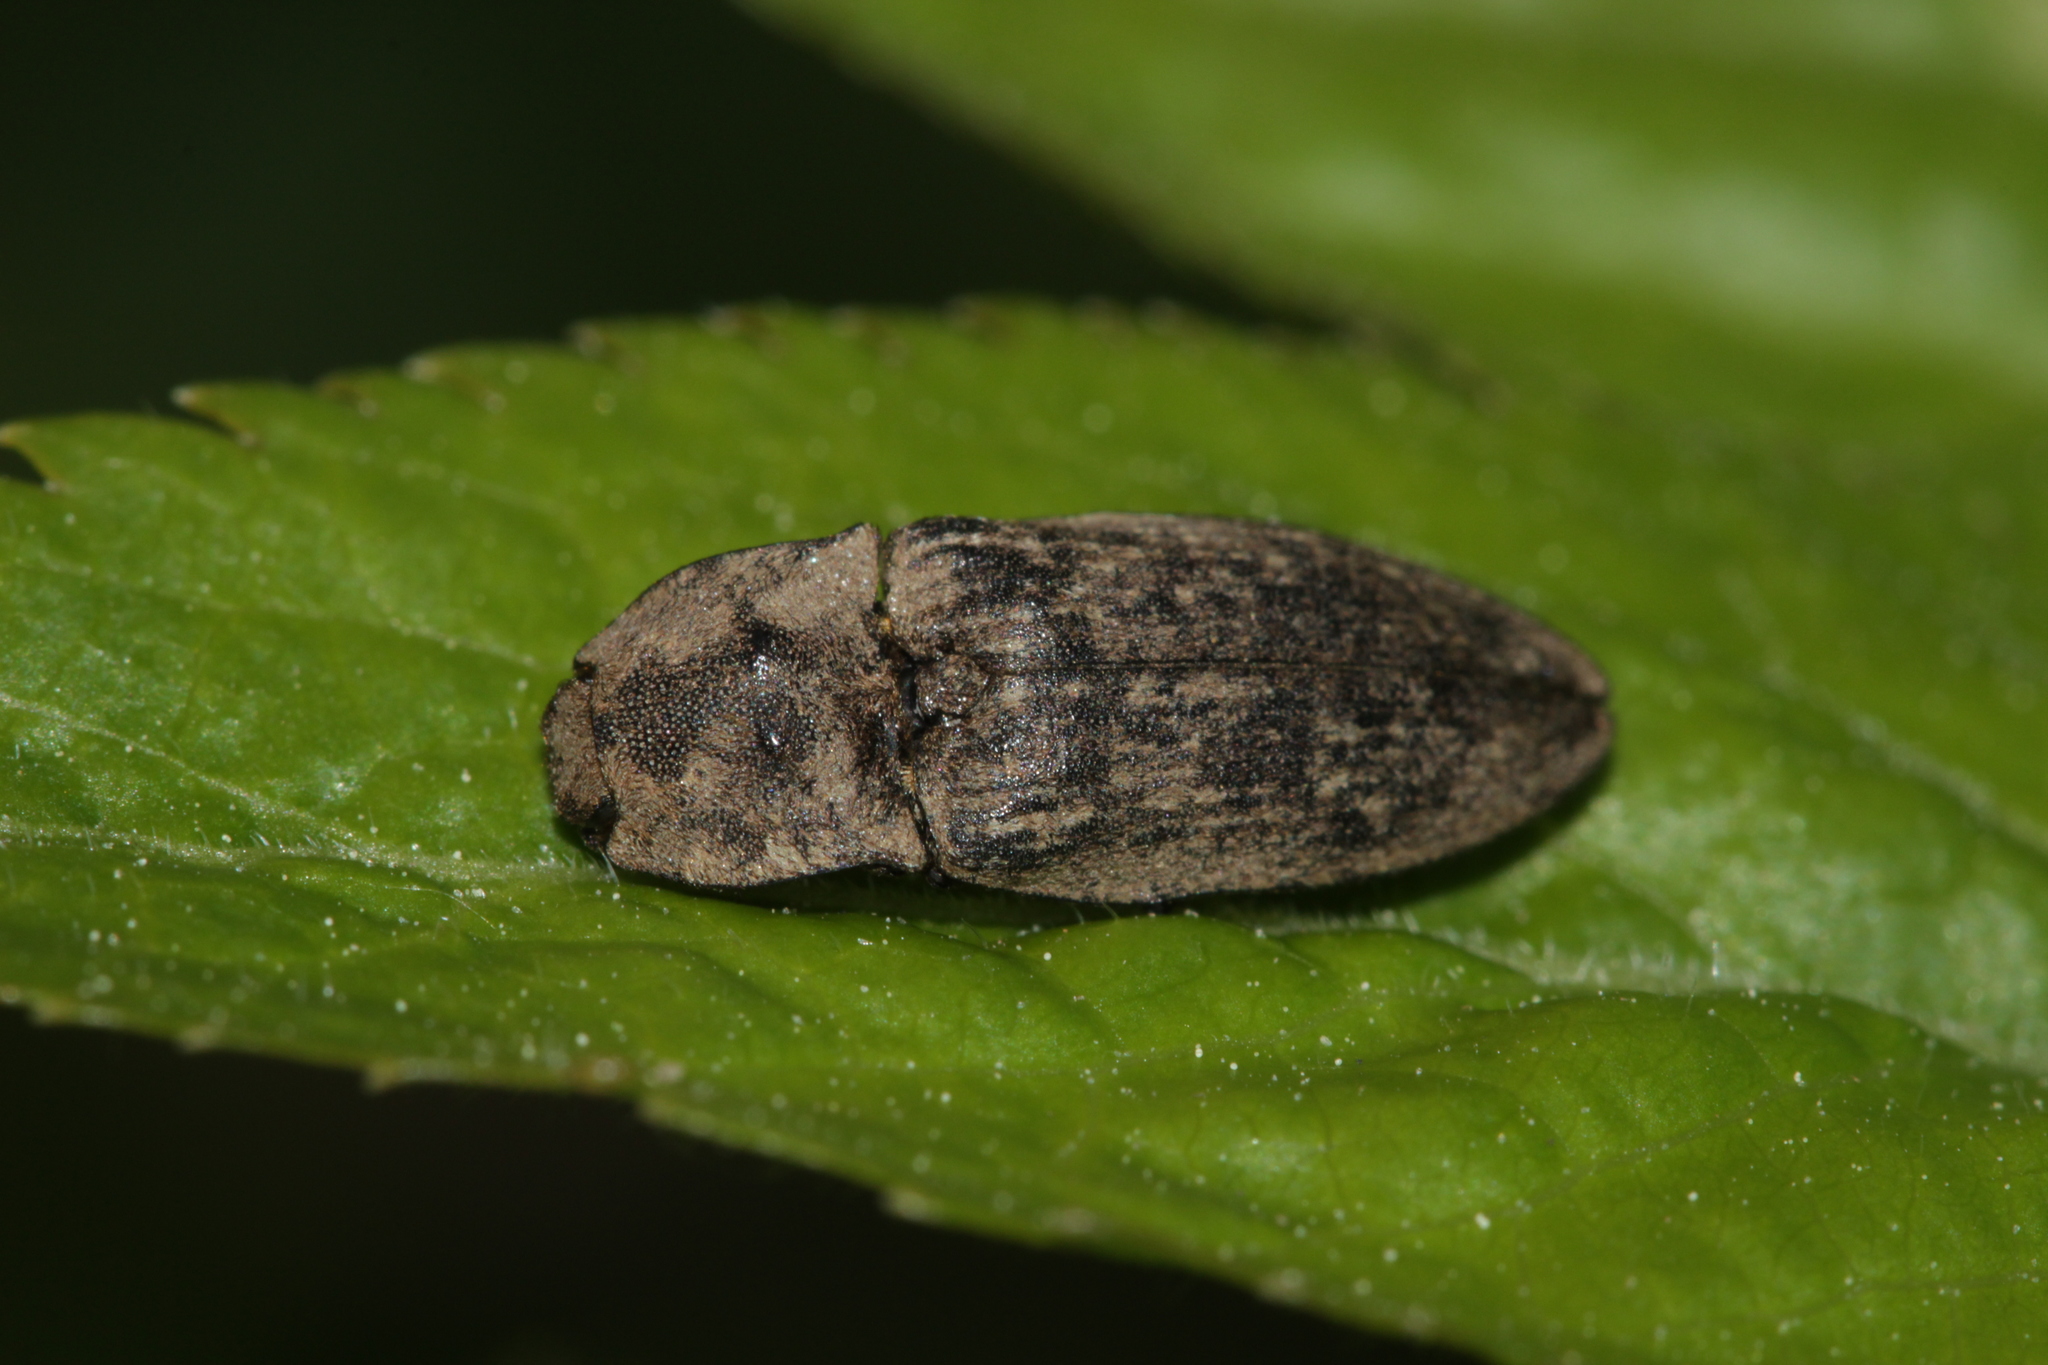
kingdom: Animalia
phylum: Arthropoda
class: Insecta
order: Coleoptera
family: Elateridae
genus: Agrypnus
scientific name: Agrypnus murinus
